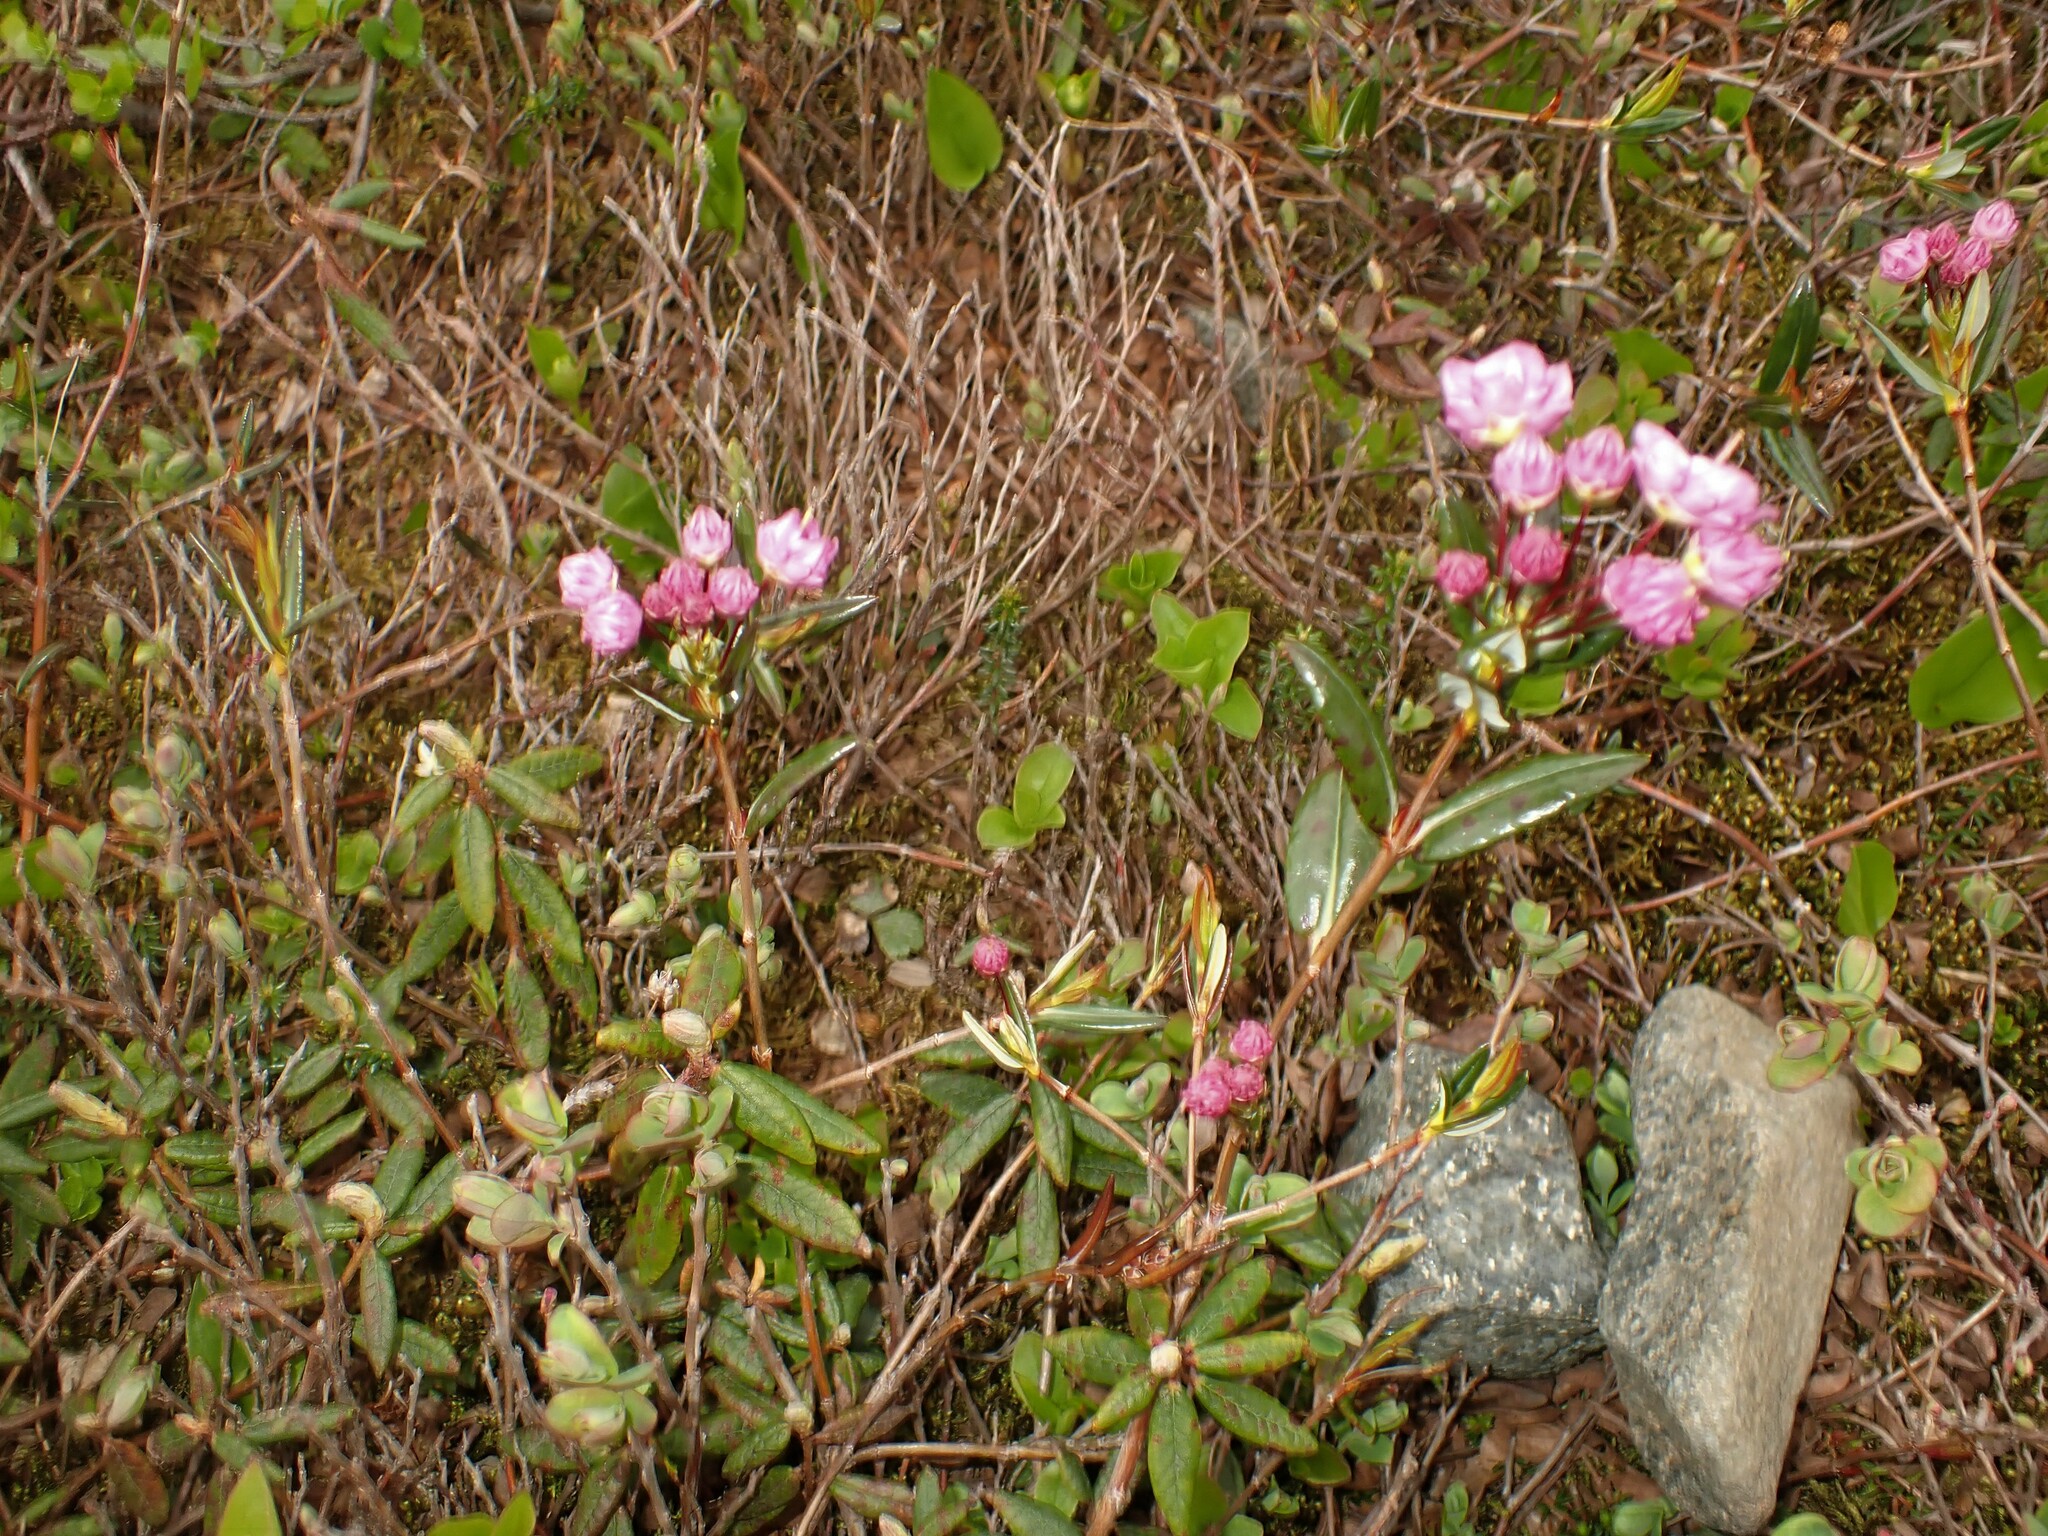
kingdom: Plantae
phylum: Tracheophyta
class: Magnoliopsida
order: Ericales
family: Ericaceae
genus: Kalmia
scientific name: Kalmia polifolia
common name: Bog-laurel
